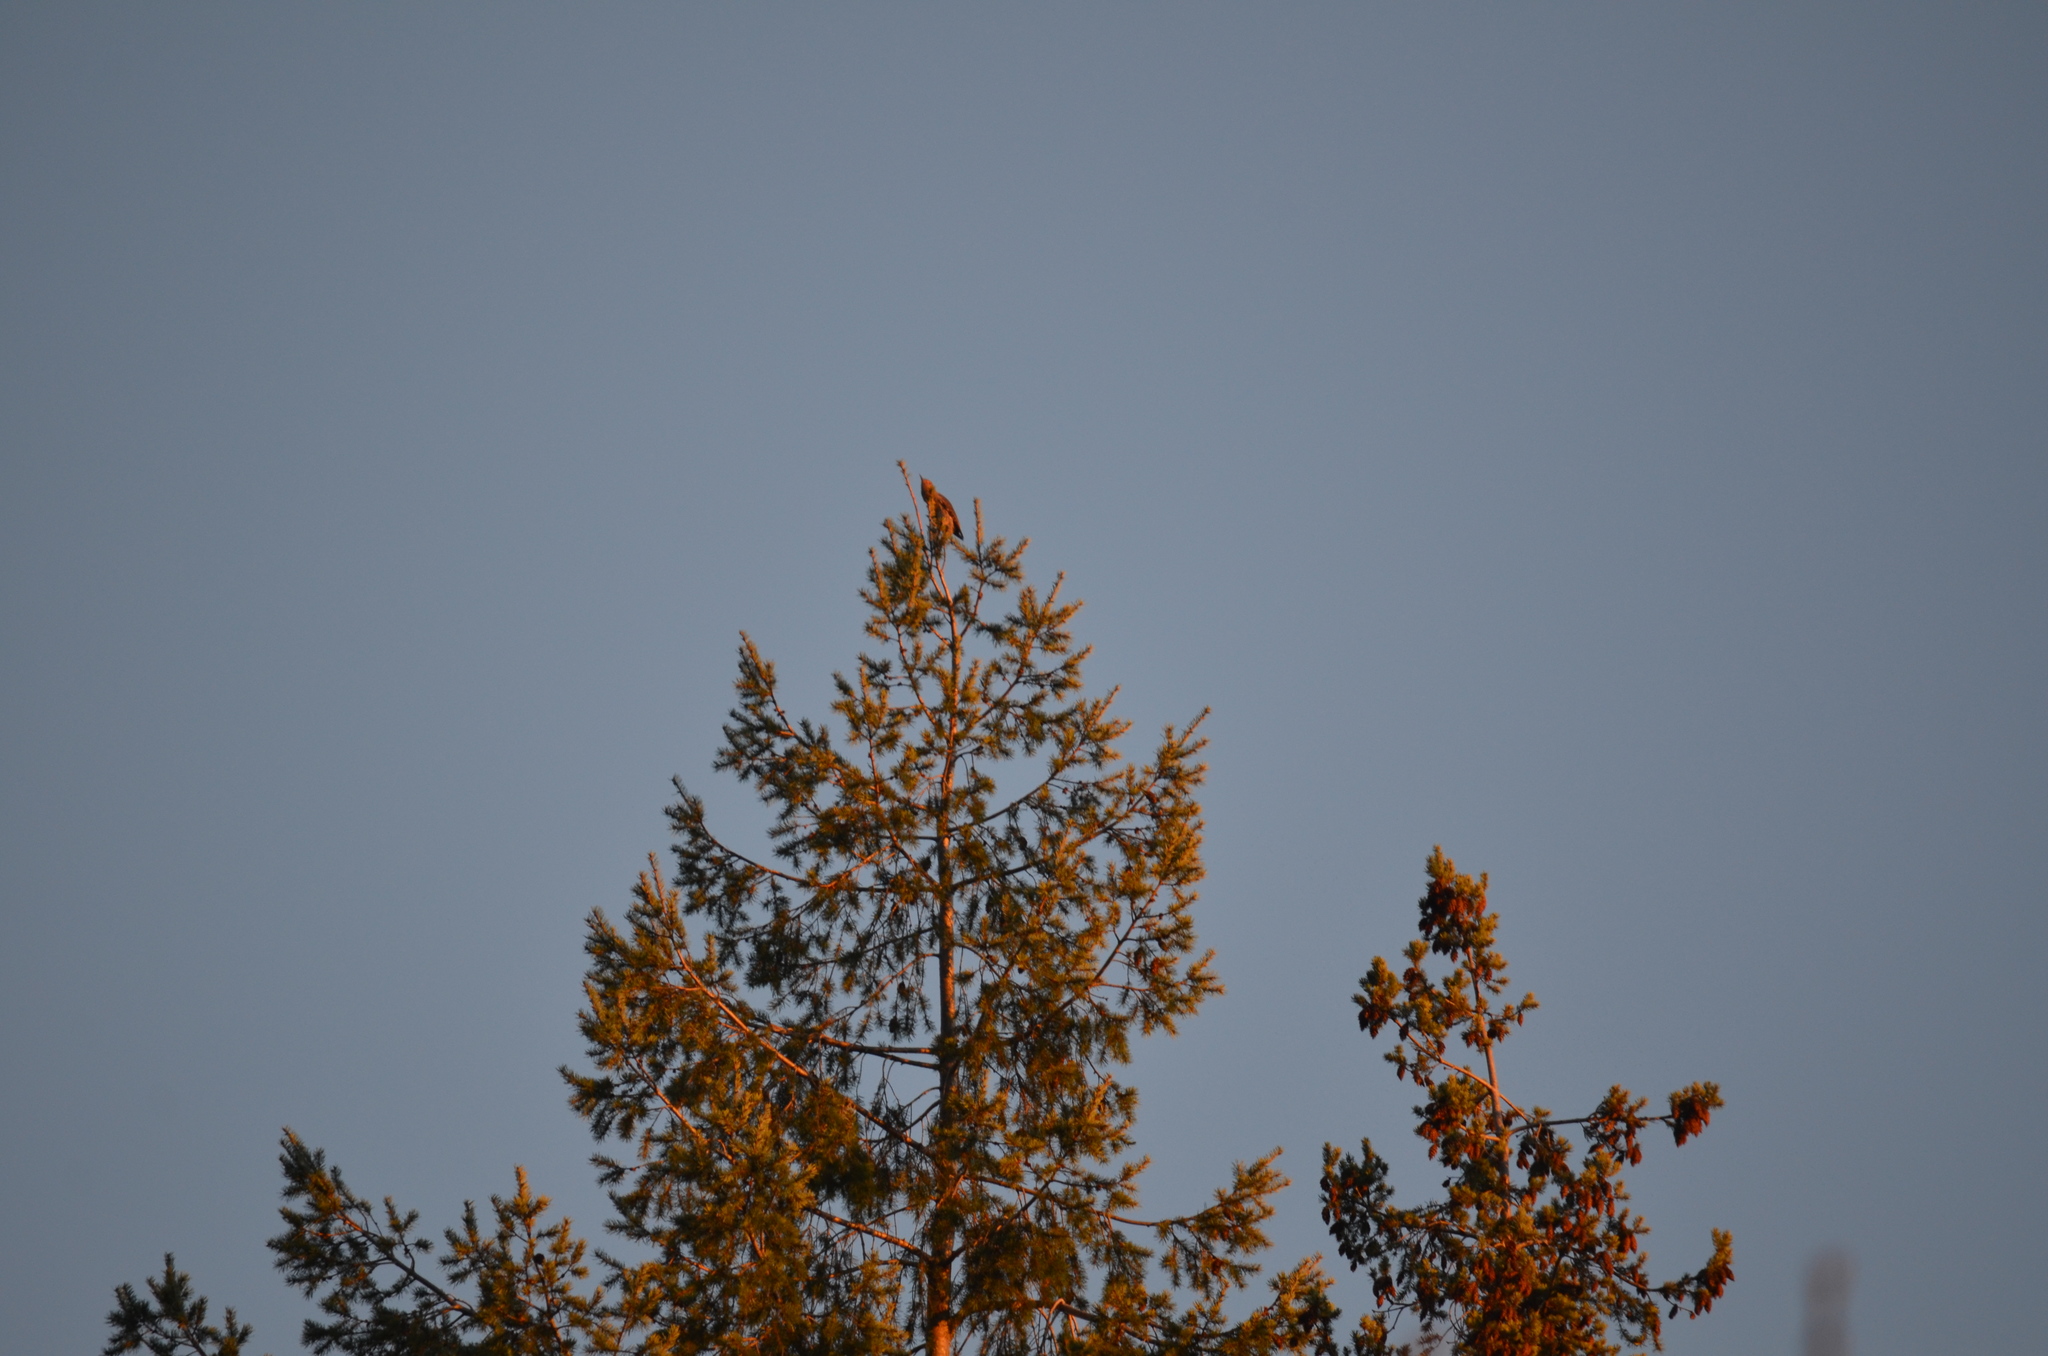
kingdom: Animalia
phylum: Chordata
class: Aves
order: Piciformes
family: Picidae
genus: Colaptes
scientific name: Colaptes auratus
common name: Northern flicker
